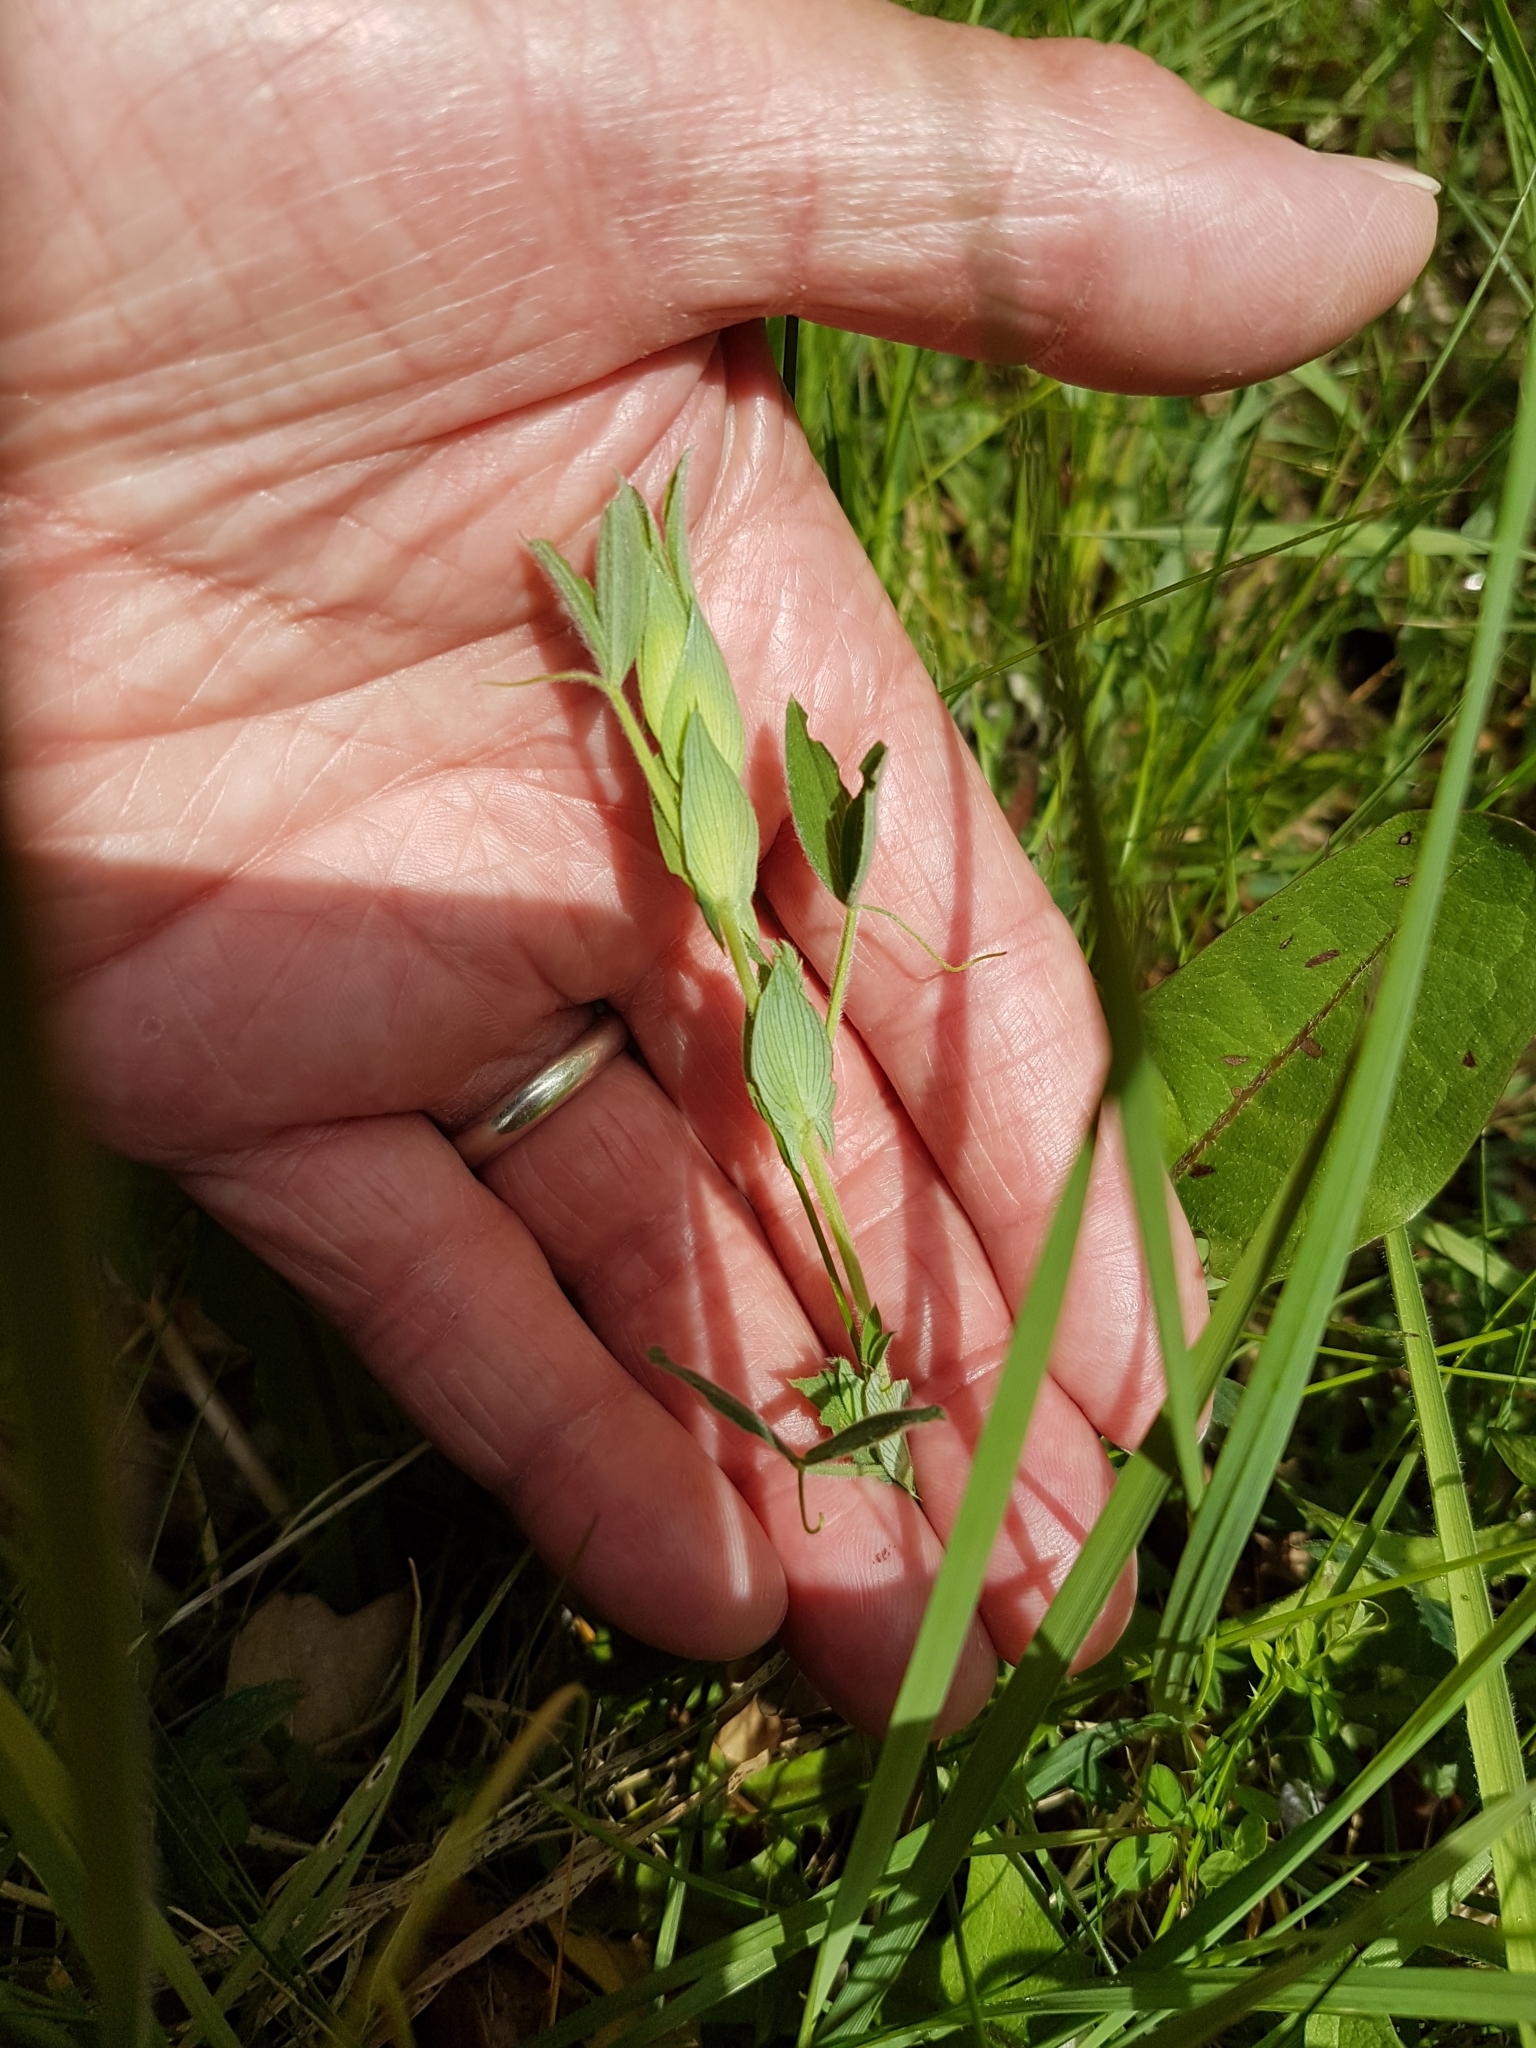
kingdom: Plantae
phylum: Tracheophyta
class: Magnoliopsida
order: Fabales
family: Fabaceae
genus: Lathyrus
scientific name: Lathyrus pratensis
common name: Meadow vetchling
